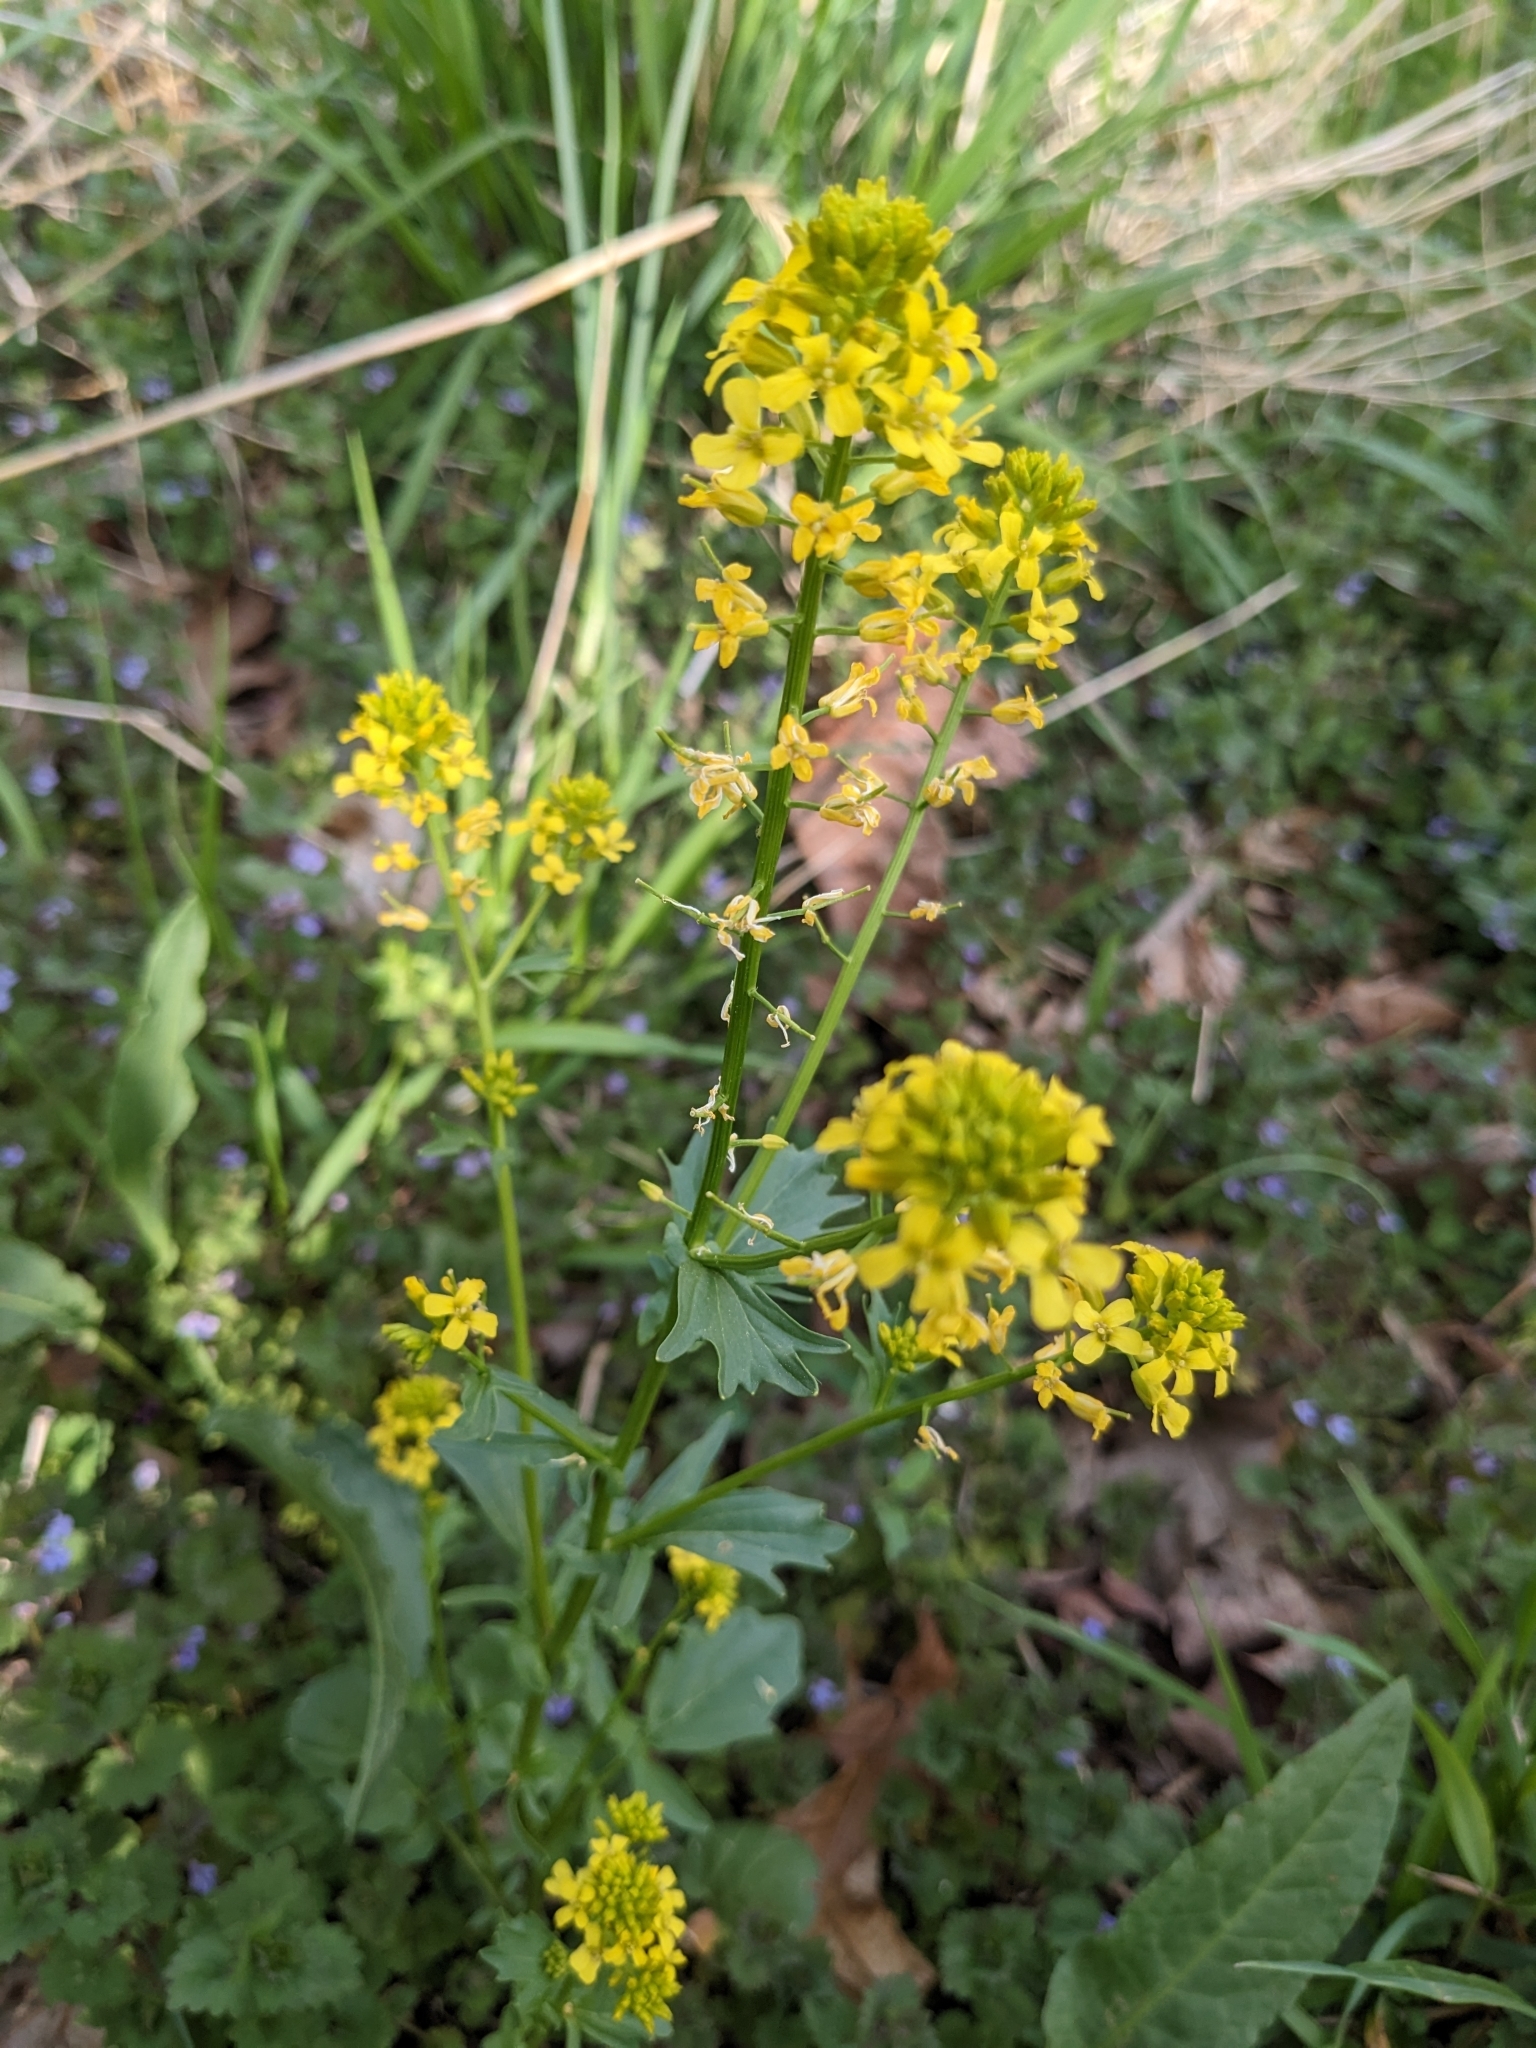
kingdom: Plantae
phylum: Tracheophyta
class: Magnoliopsida
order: Brassicales
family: Brassicaceae
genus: Barbarea
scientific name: Barbarea vulgaris
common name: Cressy-greens
